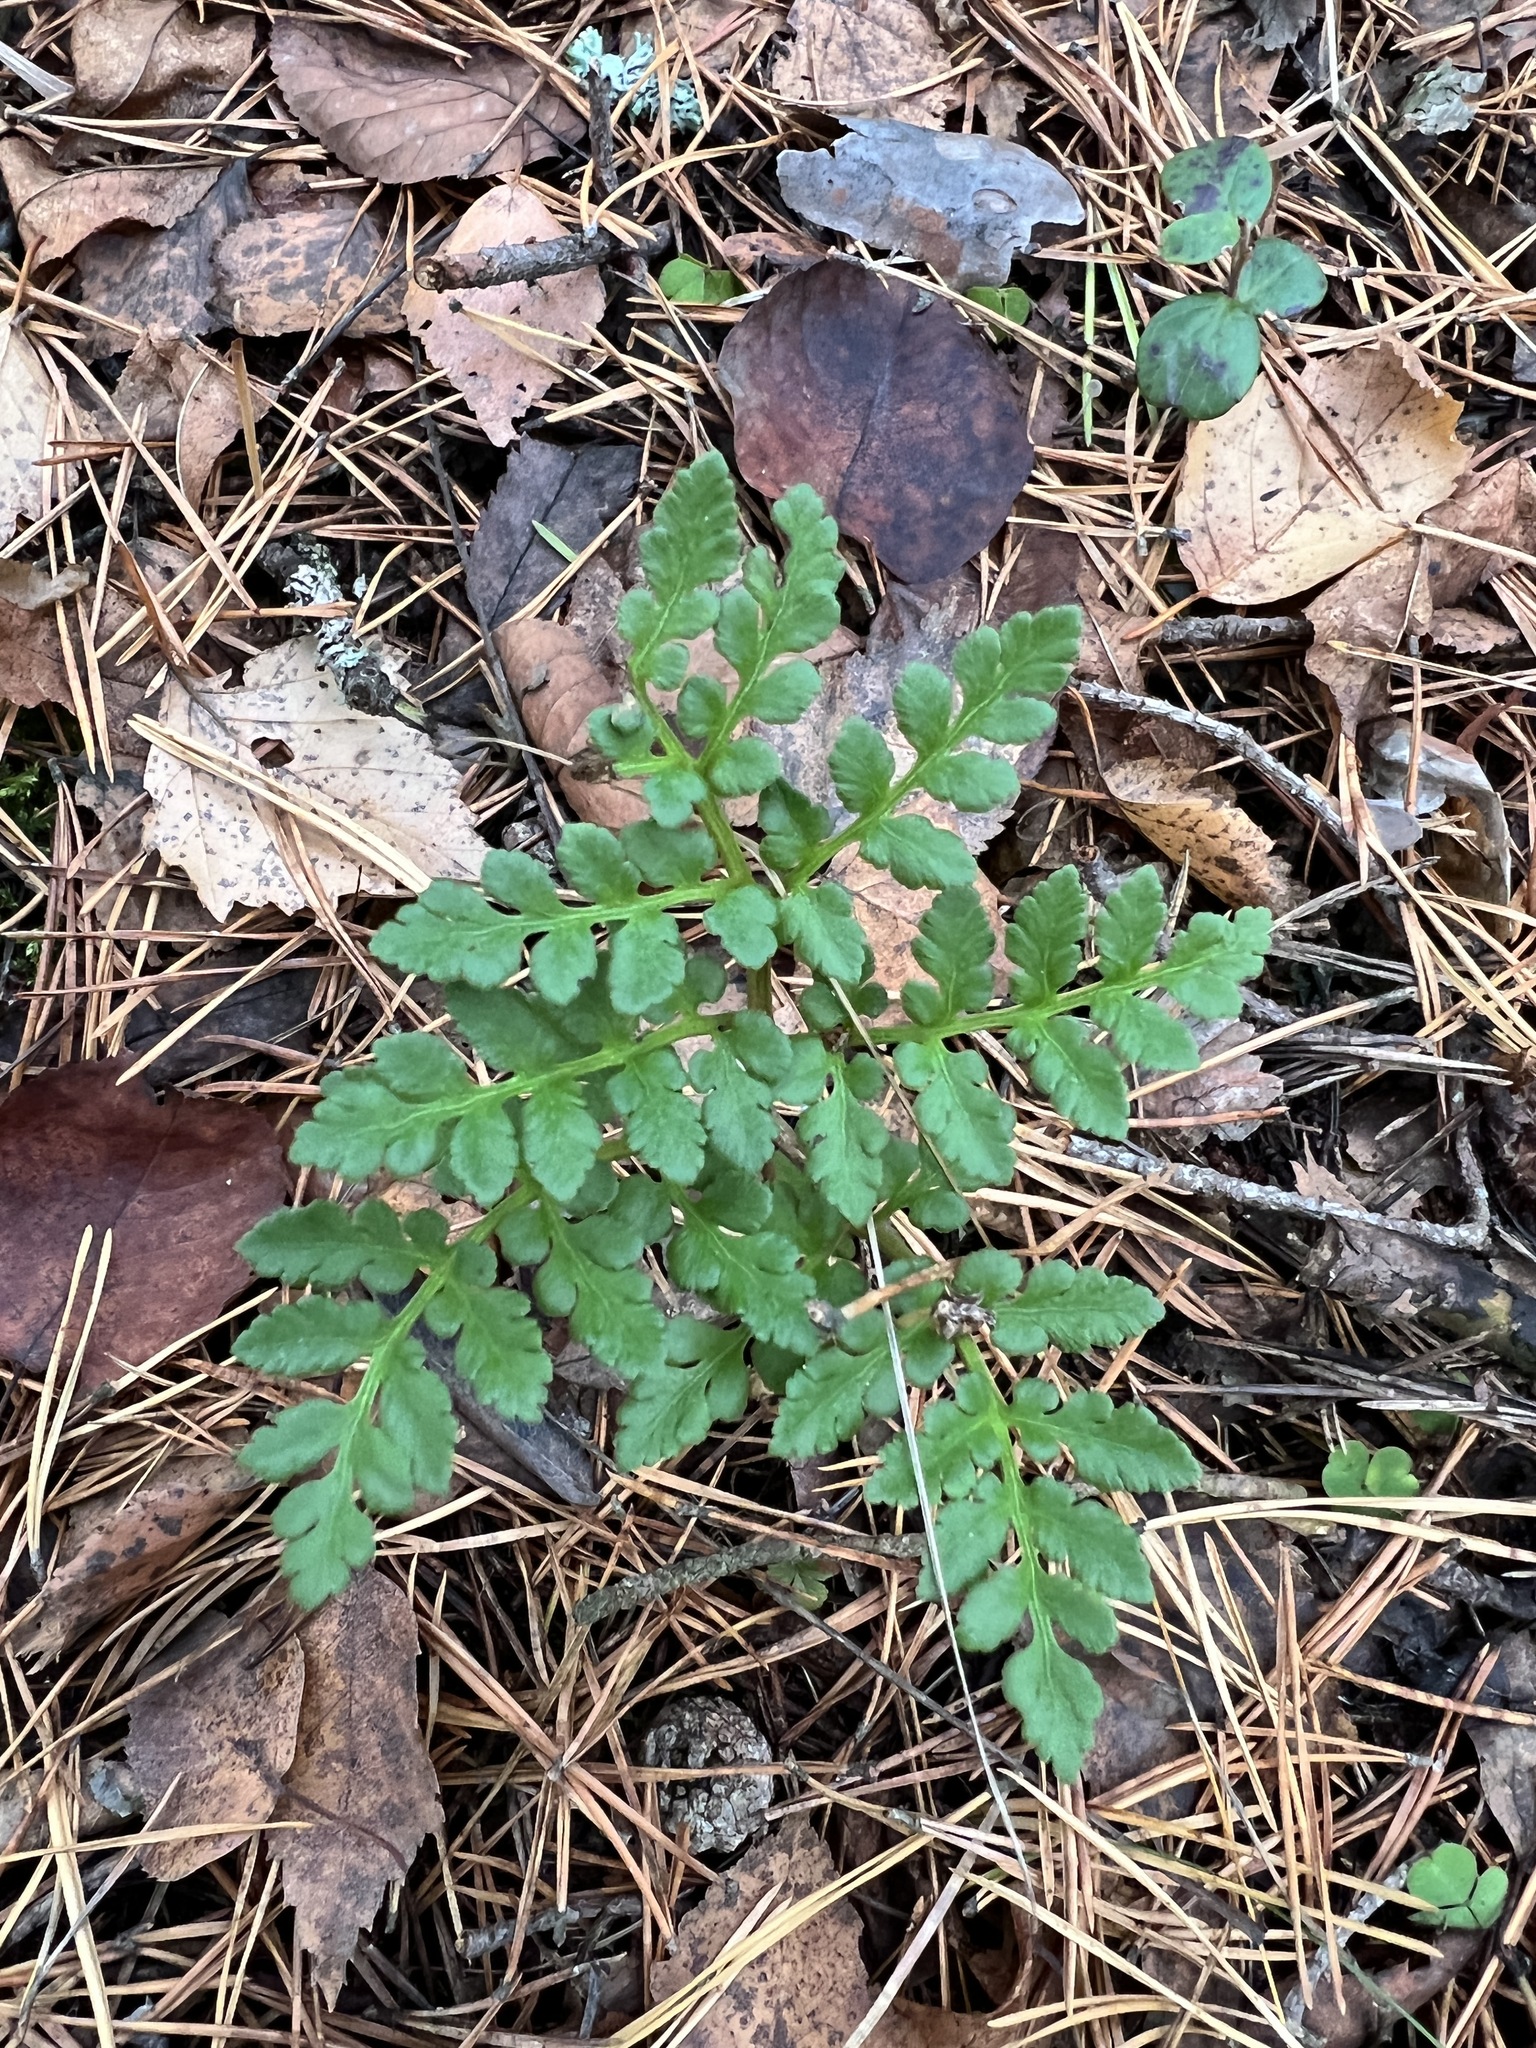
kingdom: Plantae
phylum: Tracheophyta
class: Polypodiopsida
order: Ophioglossales
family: Ophioglossaceae
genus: Sceptridium
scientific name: Sceptridium multifidum
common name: Leathery grape fern
